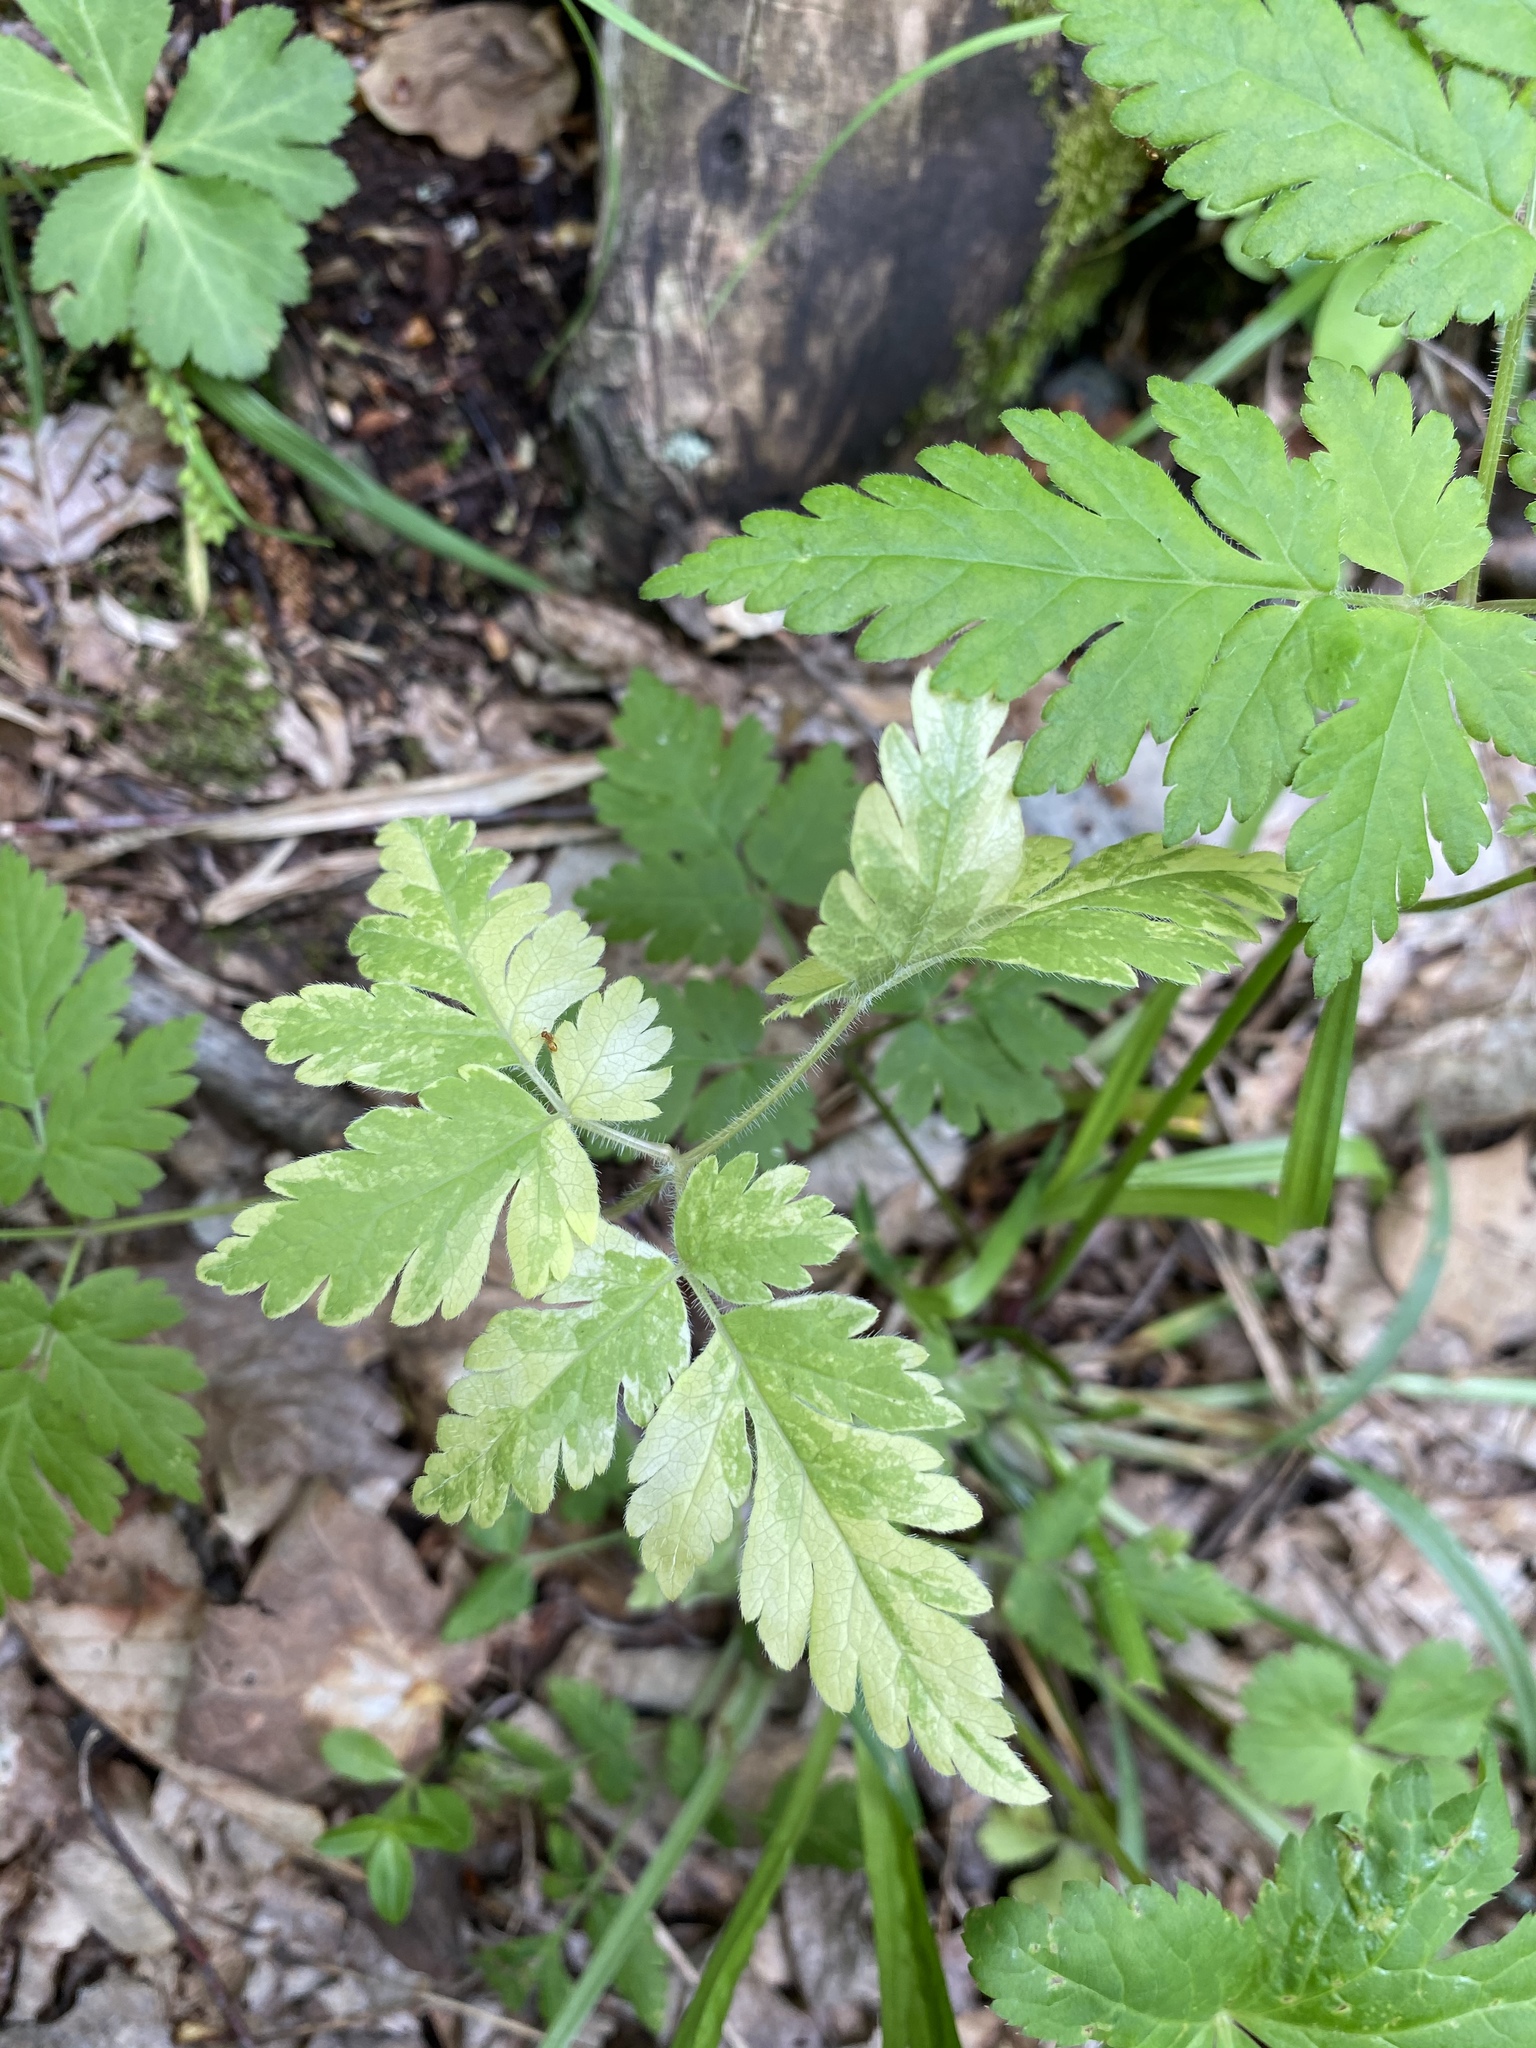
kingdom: Plantae
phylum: Tracheophyta
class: Magnoliopsida
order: Apiales
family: Apiaceae
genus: Osmorhiza
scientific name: Osmorhiza claytonii
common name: Hairy sweet cicely
